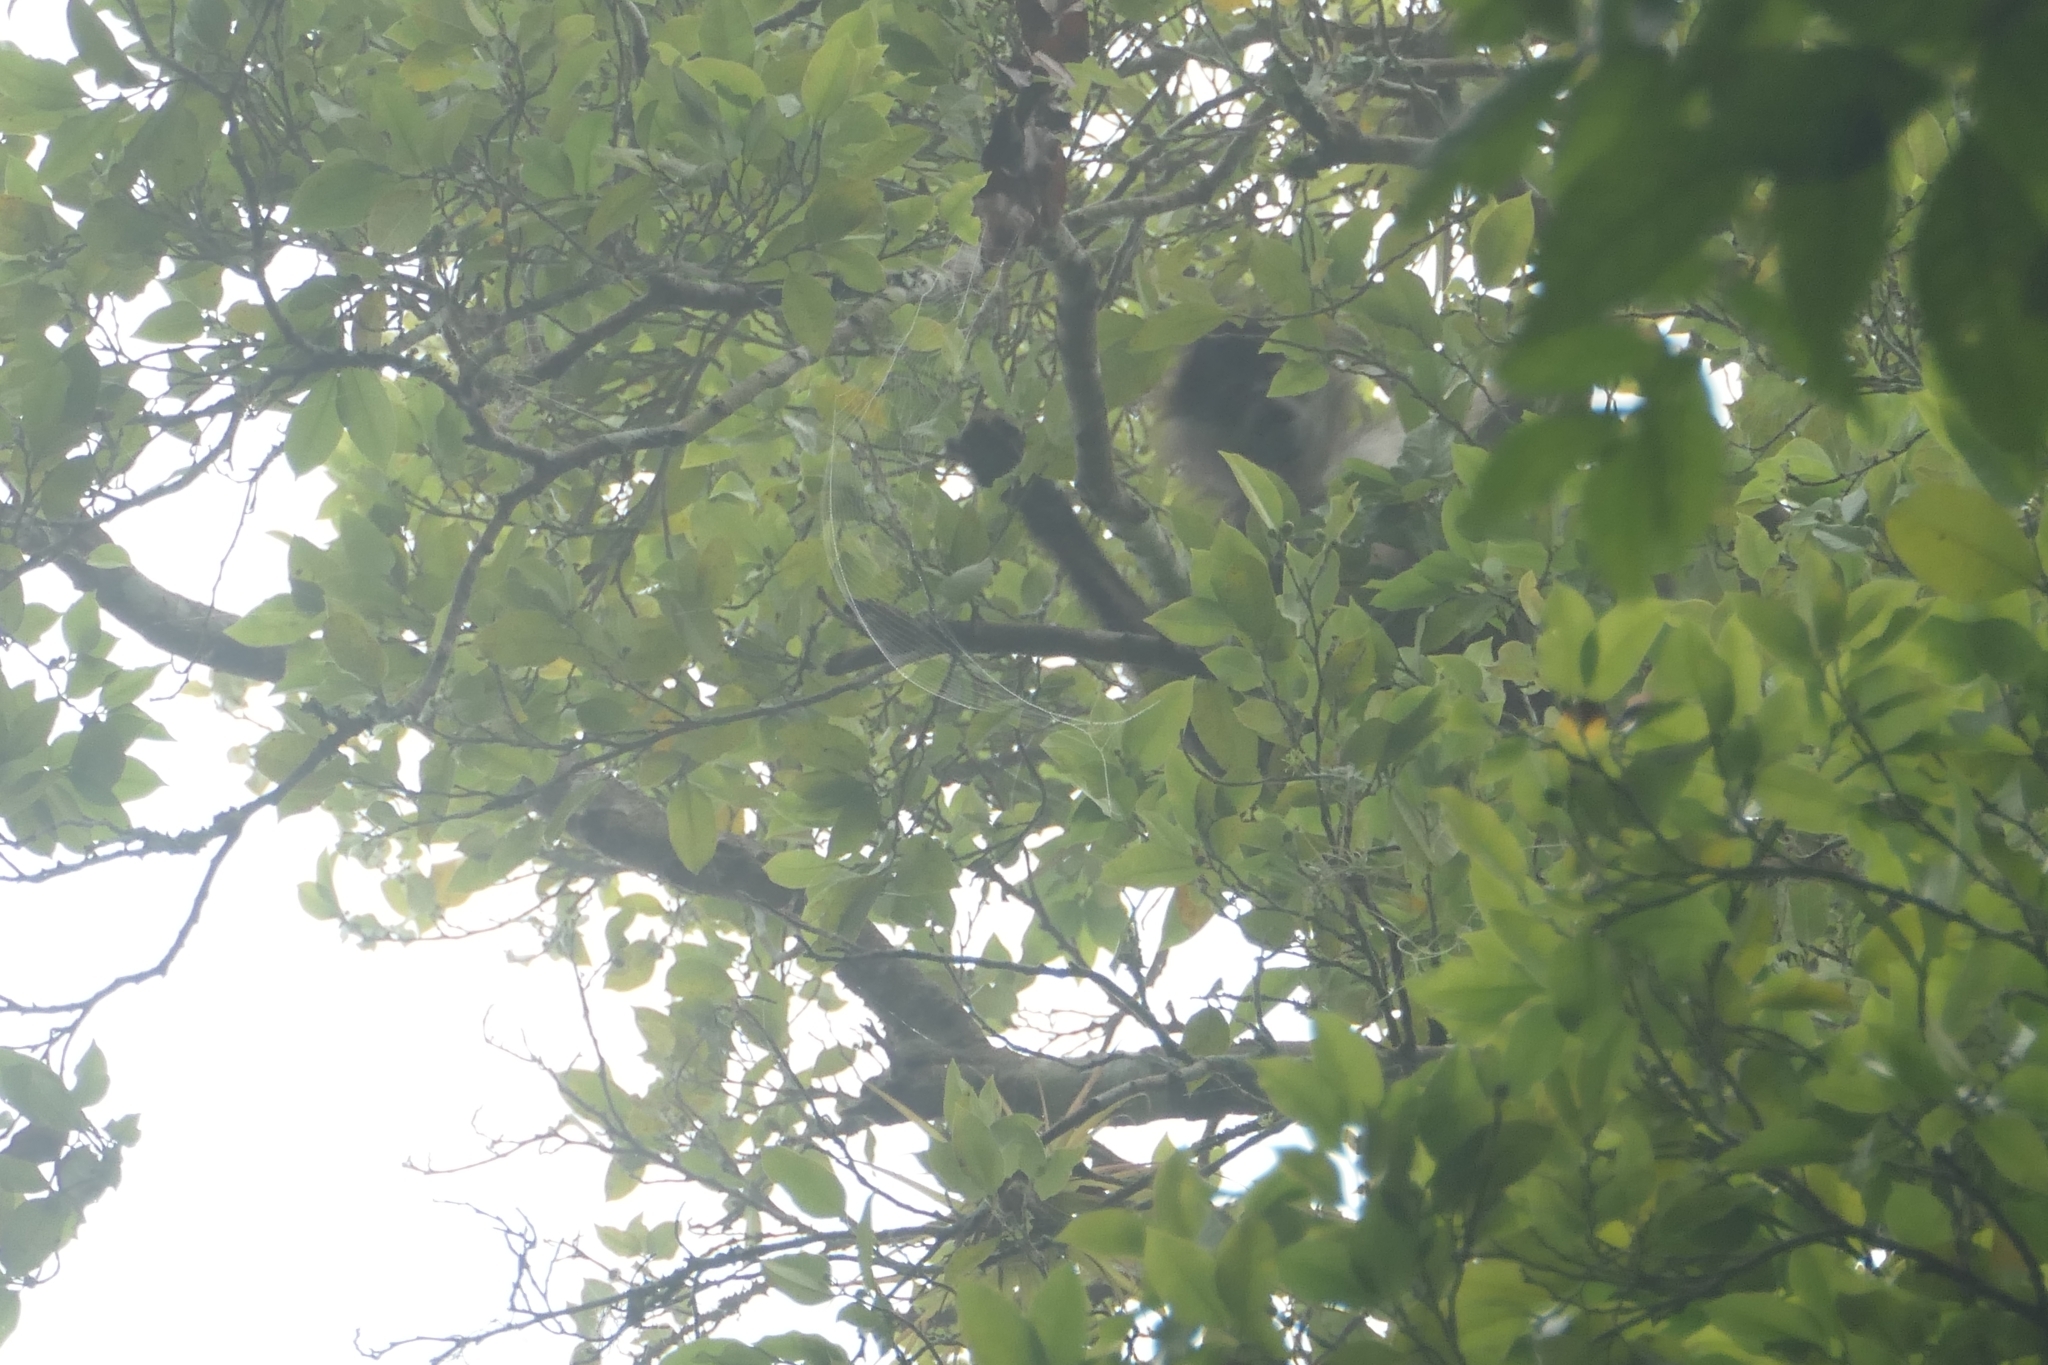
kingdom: Animalia
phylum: Chordata
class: Mammalia
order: Primates
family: Atelidae
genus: Ateles
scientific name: Ateles geoffroyi
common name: Black-handed spider monkey
